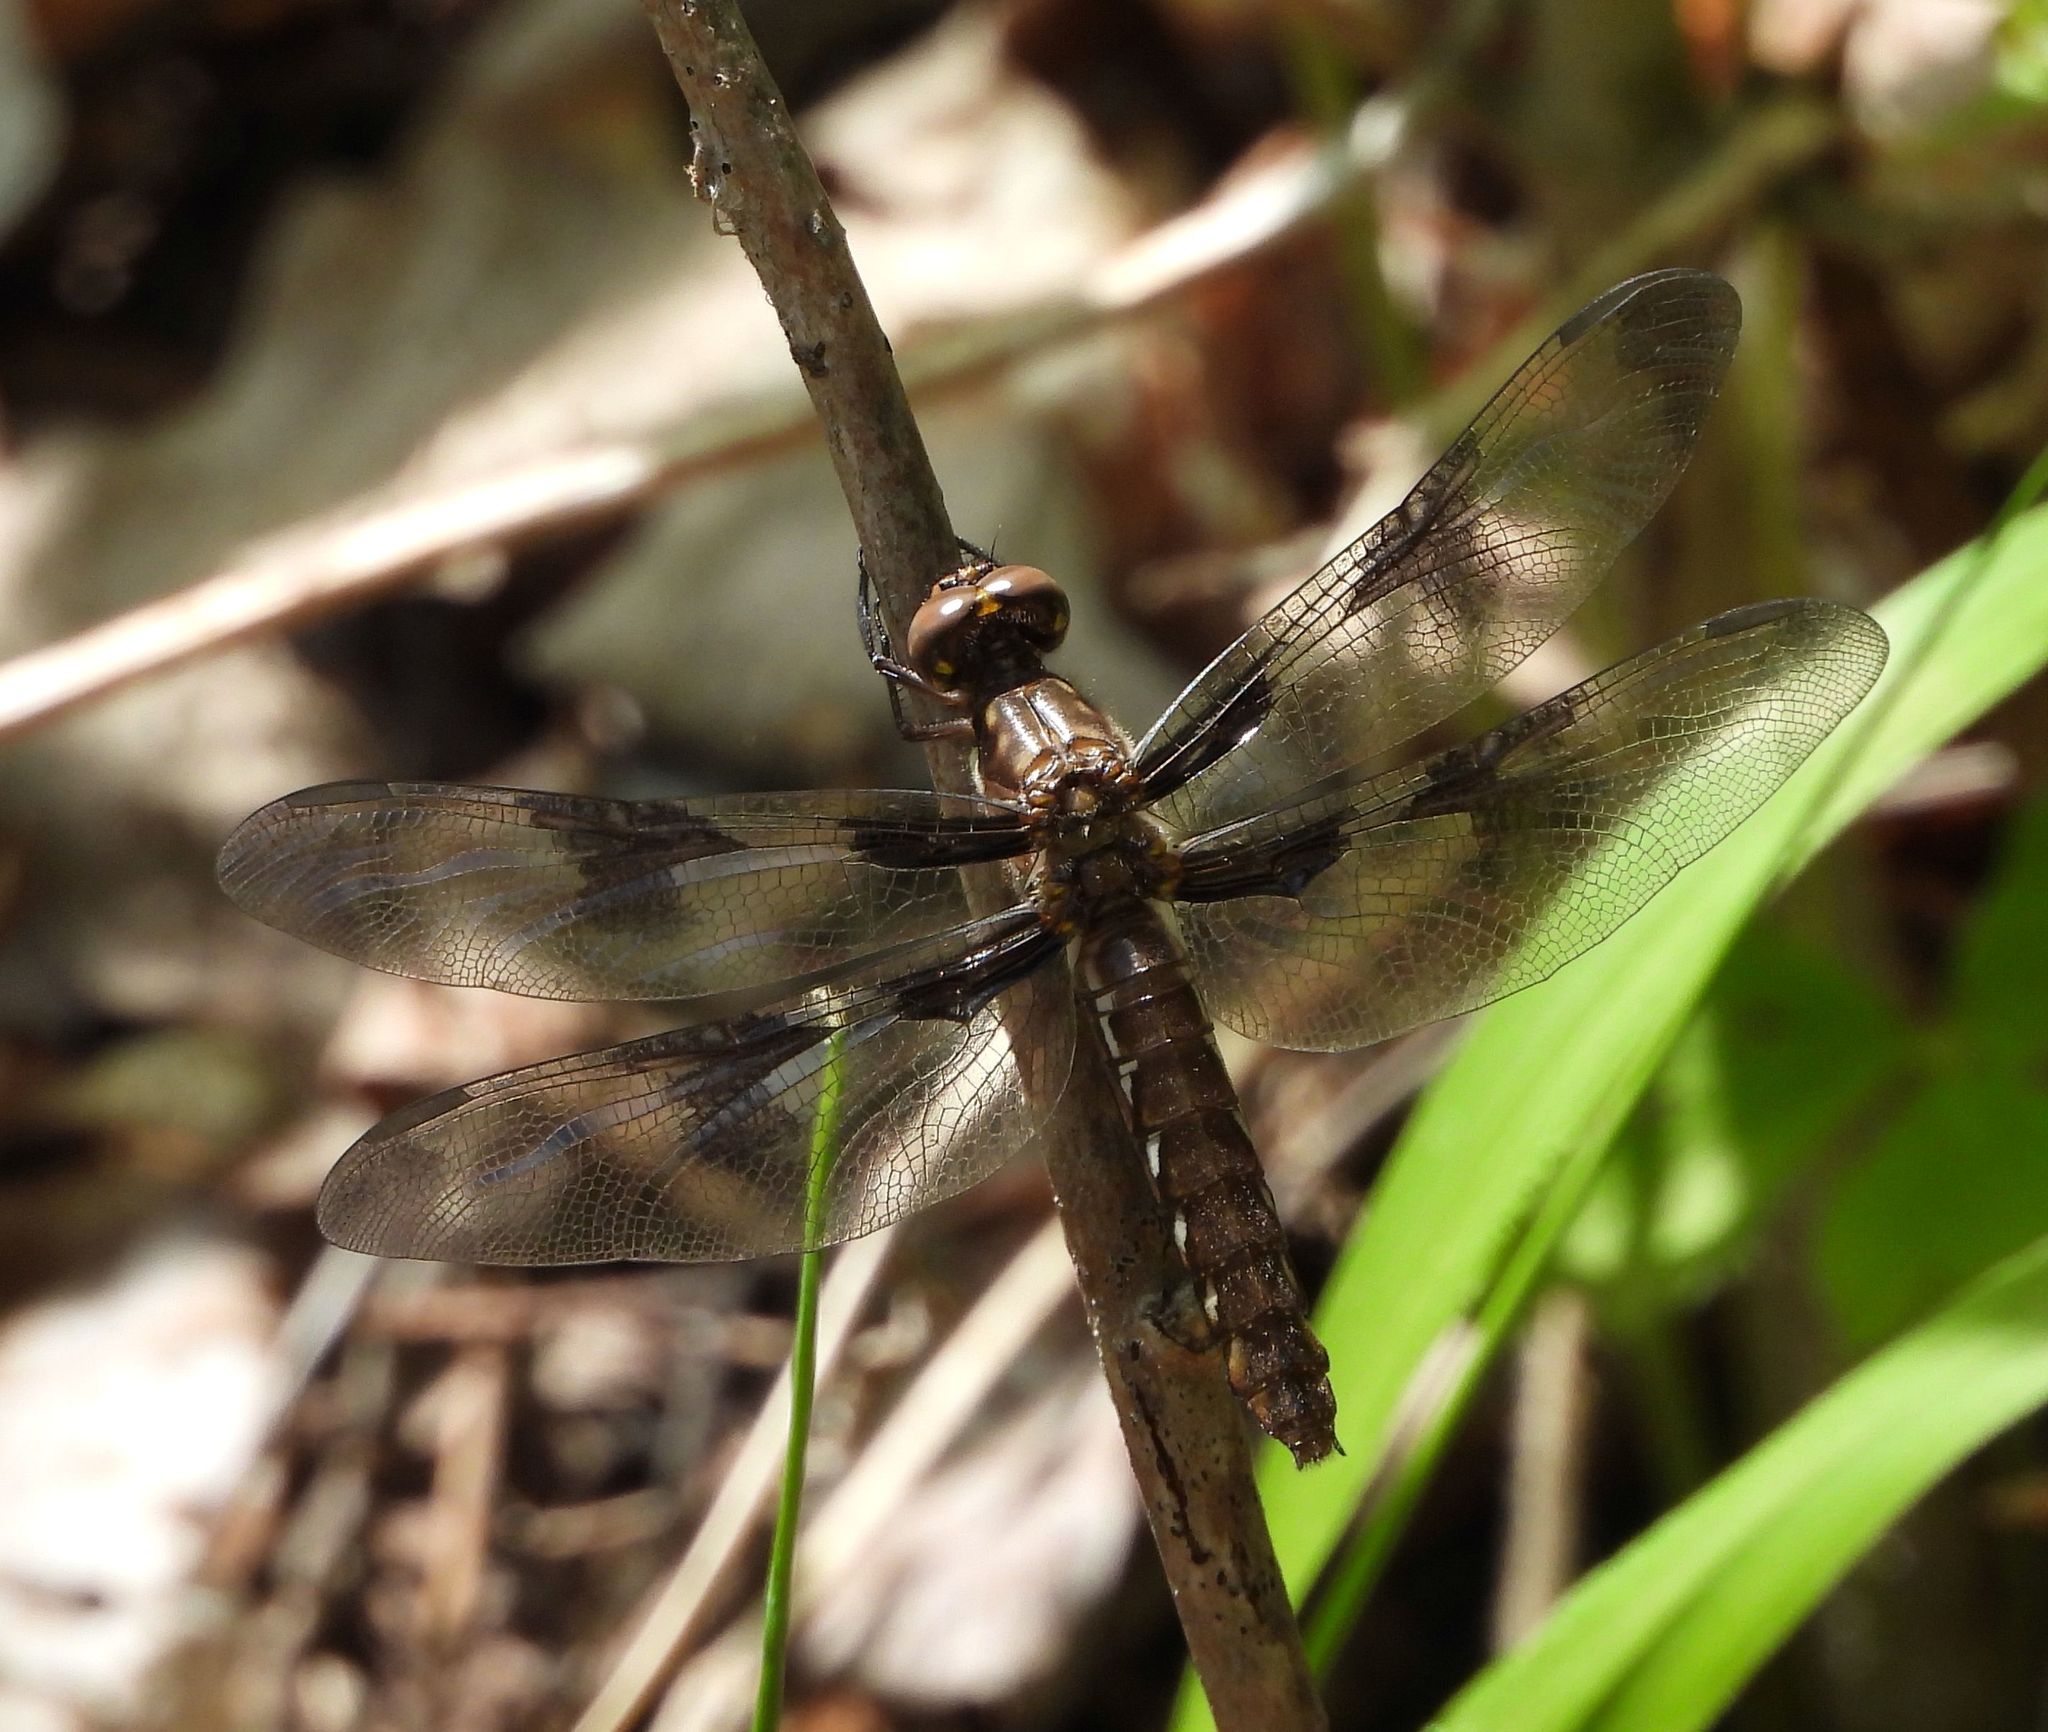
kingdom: Animalia
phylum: Arthropoda
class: Insecta
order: Odonata
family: Libellulidae
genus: Plathemis
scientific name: Plathemis lydia
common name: Common whitetail
